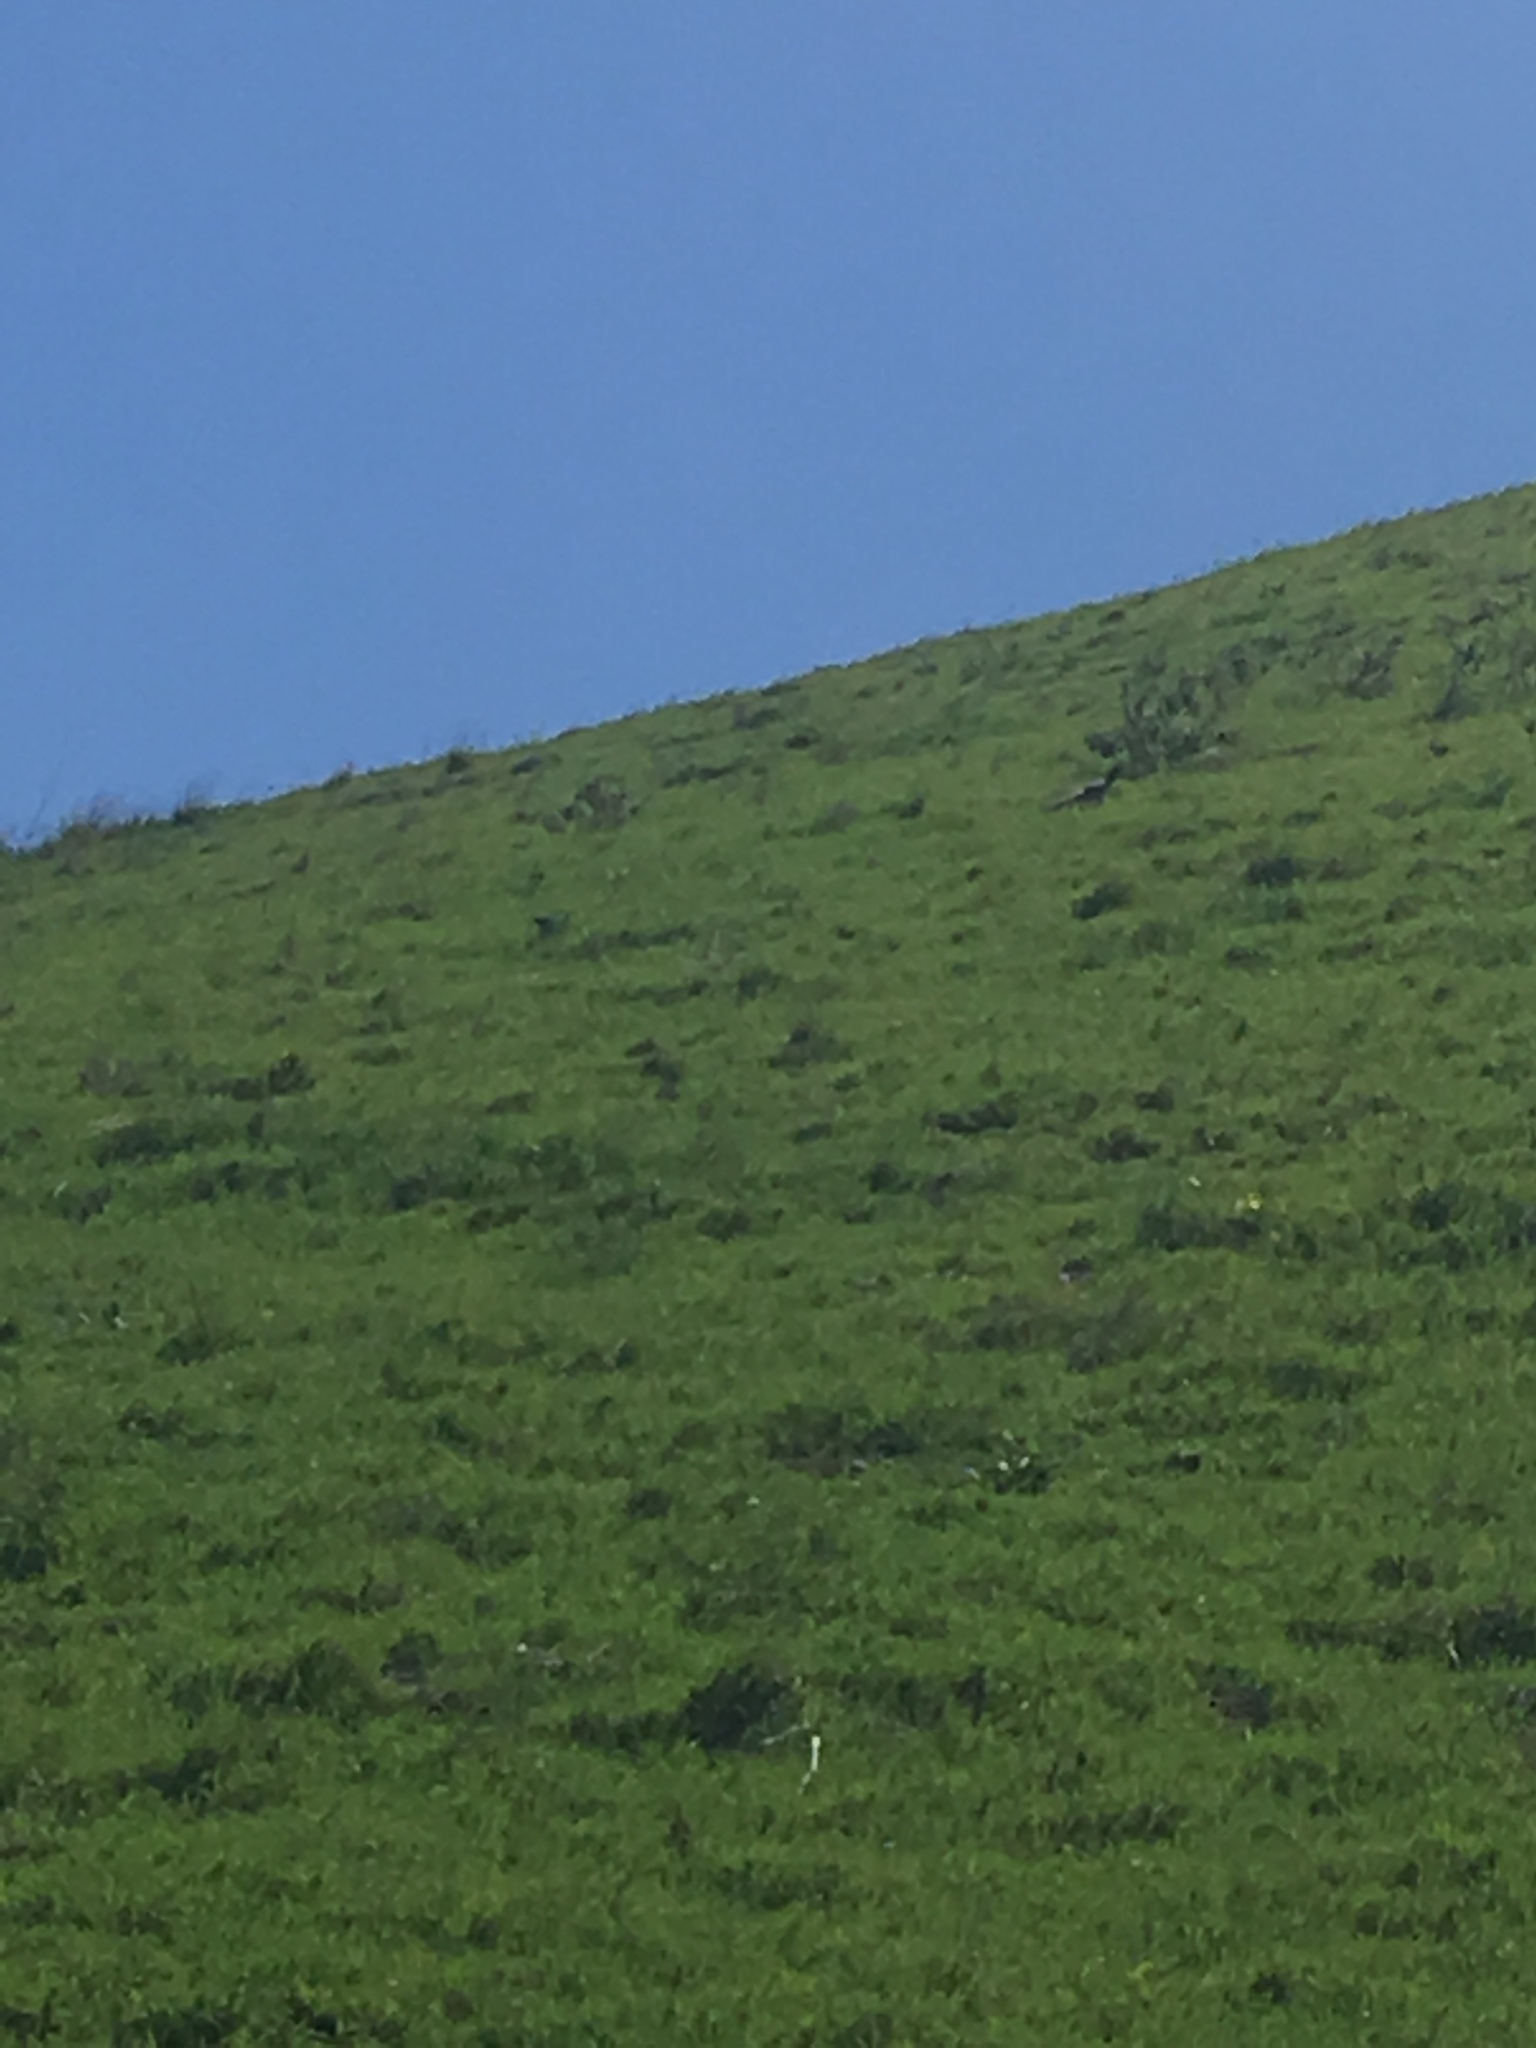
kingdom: Animalia
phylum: Chordata
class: Aves
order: Cuculiformes
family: Cuculidae
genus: Geococcyx
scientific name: Geococcyx californianus
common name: Greater roadrunner
